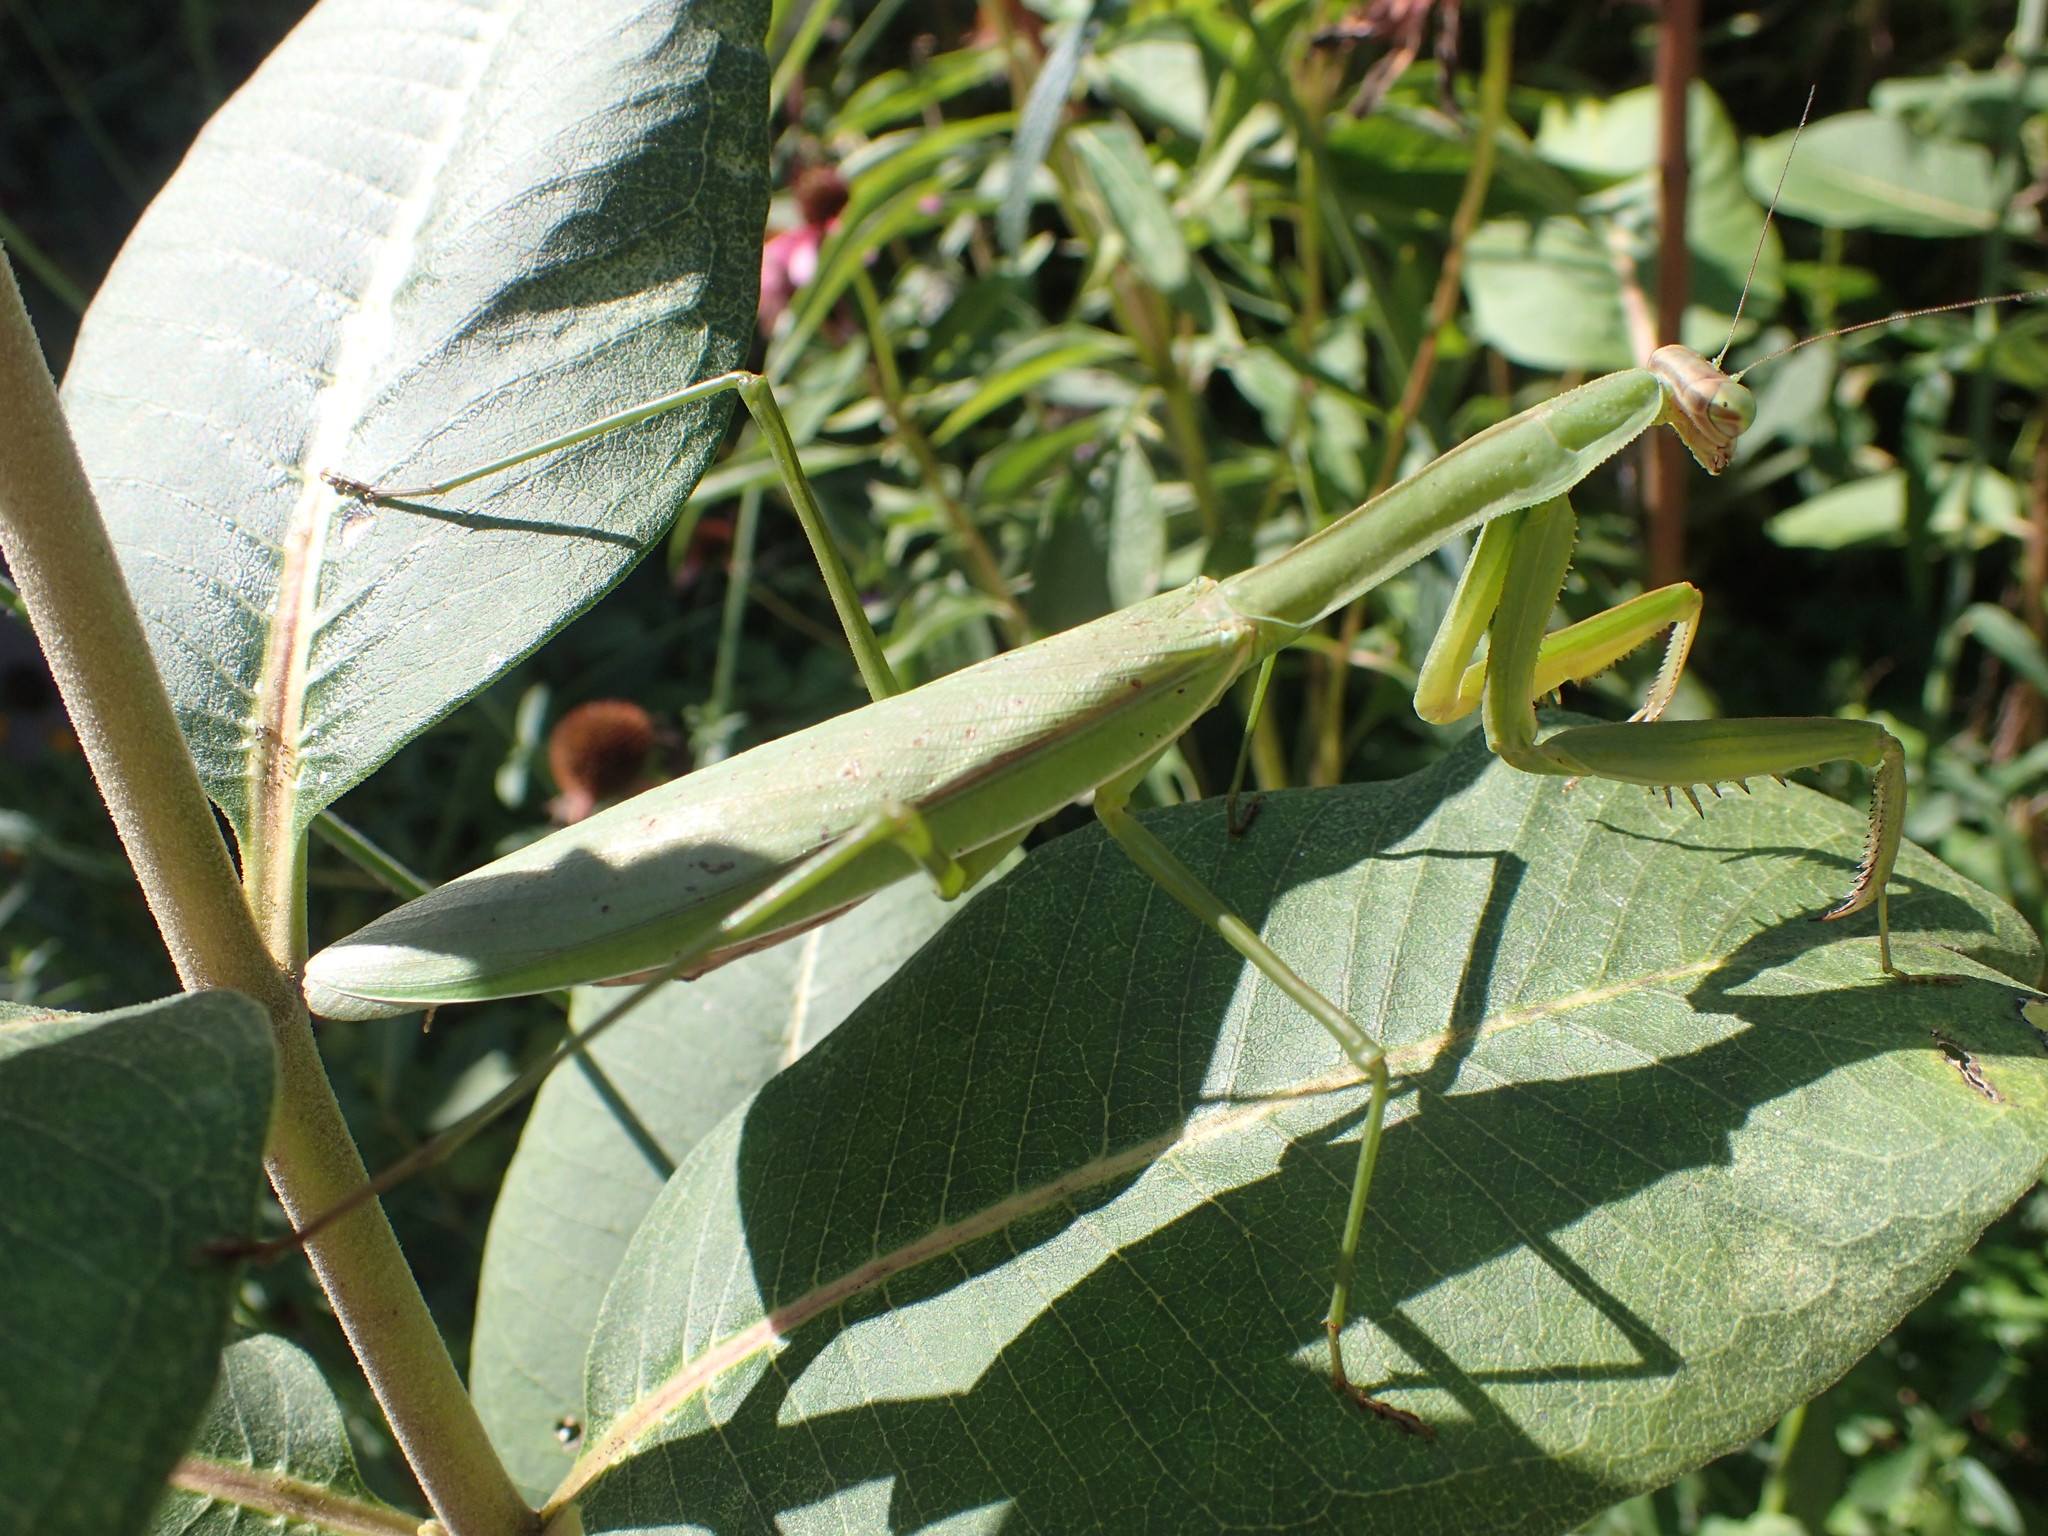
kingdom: Animalia
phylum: Arthropoda
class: Insecta
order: Mantodea
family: Mantidae
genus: Tenodera
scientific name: Tenodera sinensis
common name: Chinese mantis
